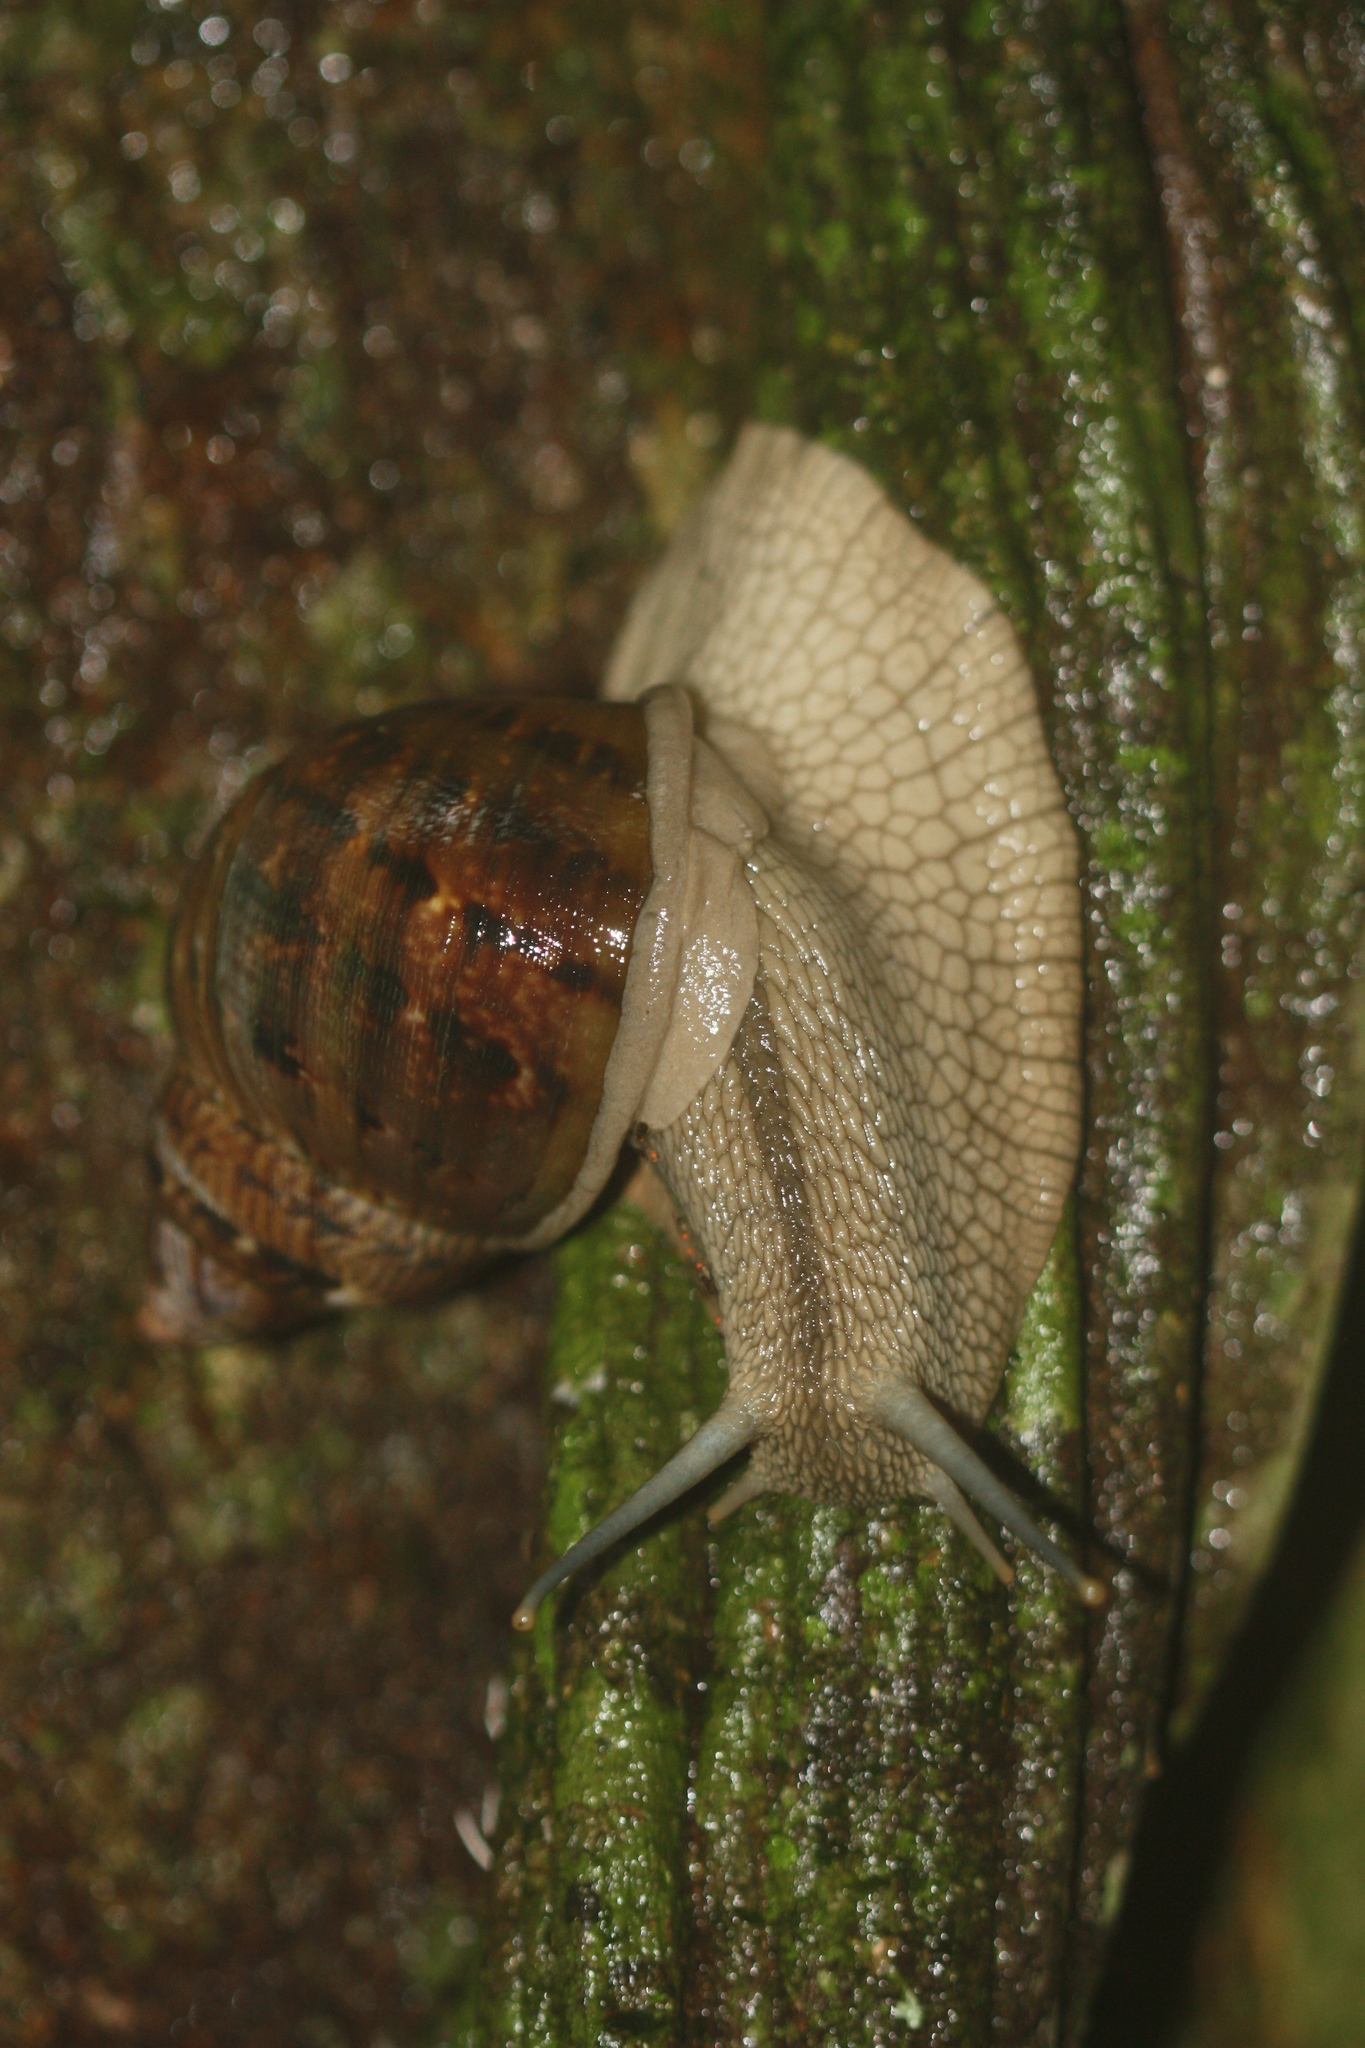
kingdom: Animalia
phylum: Mollusca
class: Gastropoda
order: Stylommatophora
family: Orthalicidae
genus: Sultana
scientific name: Sultana sultana
